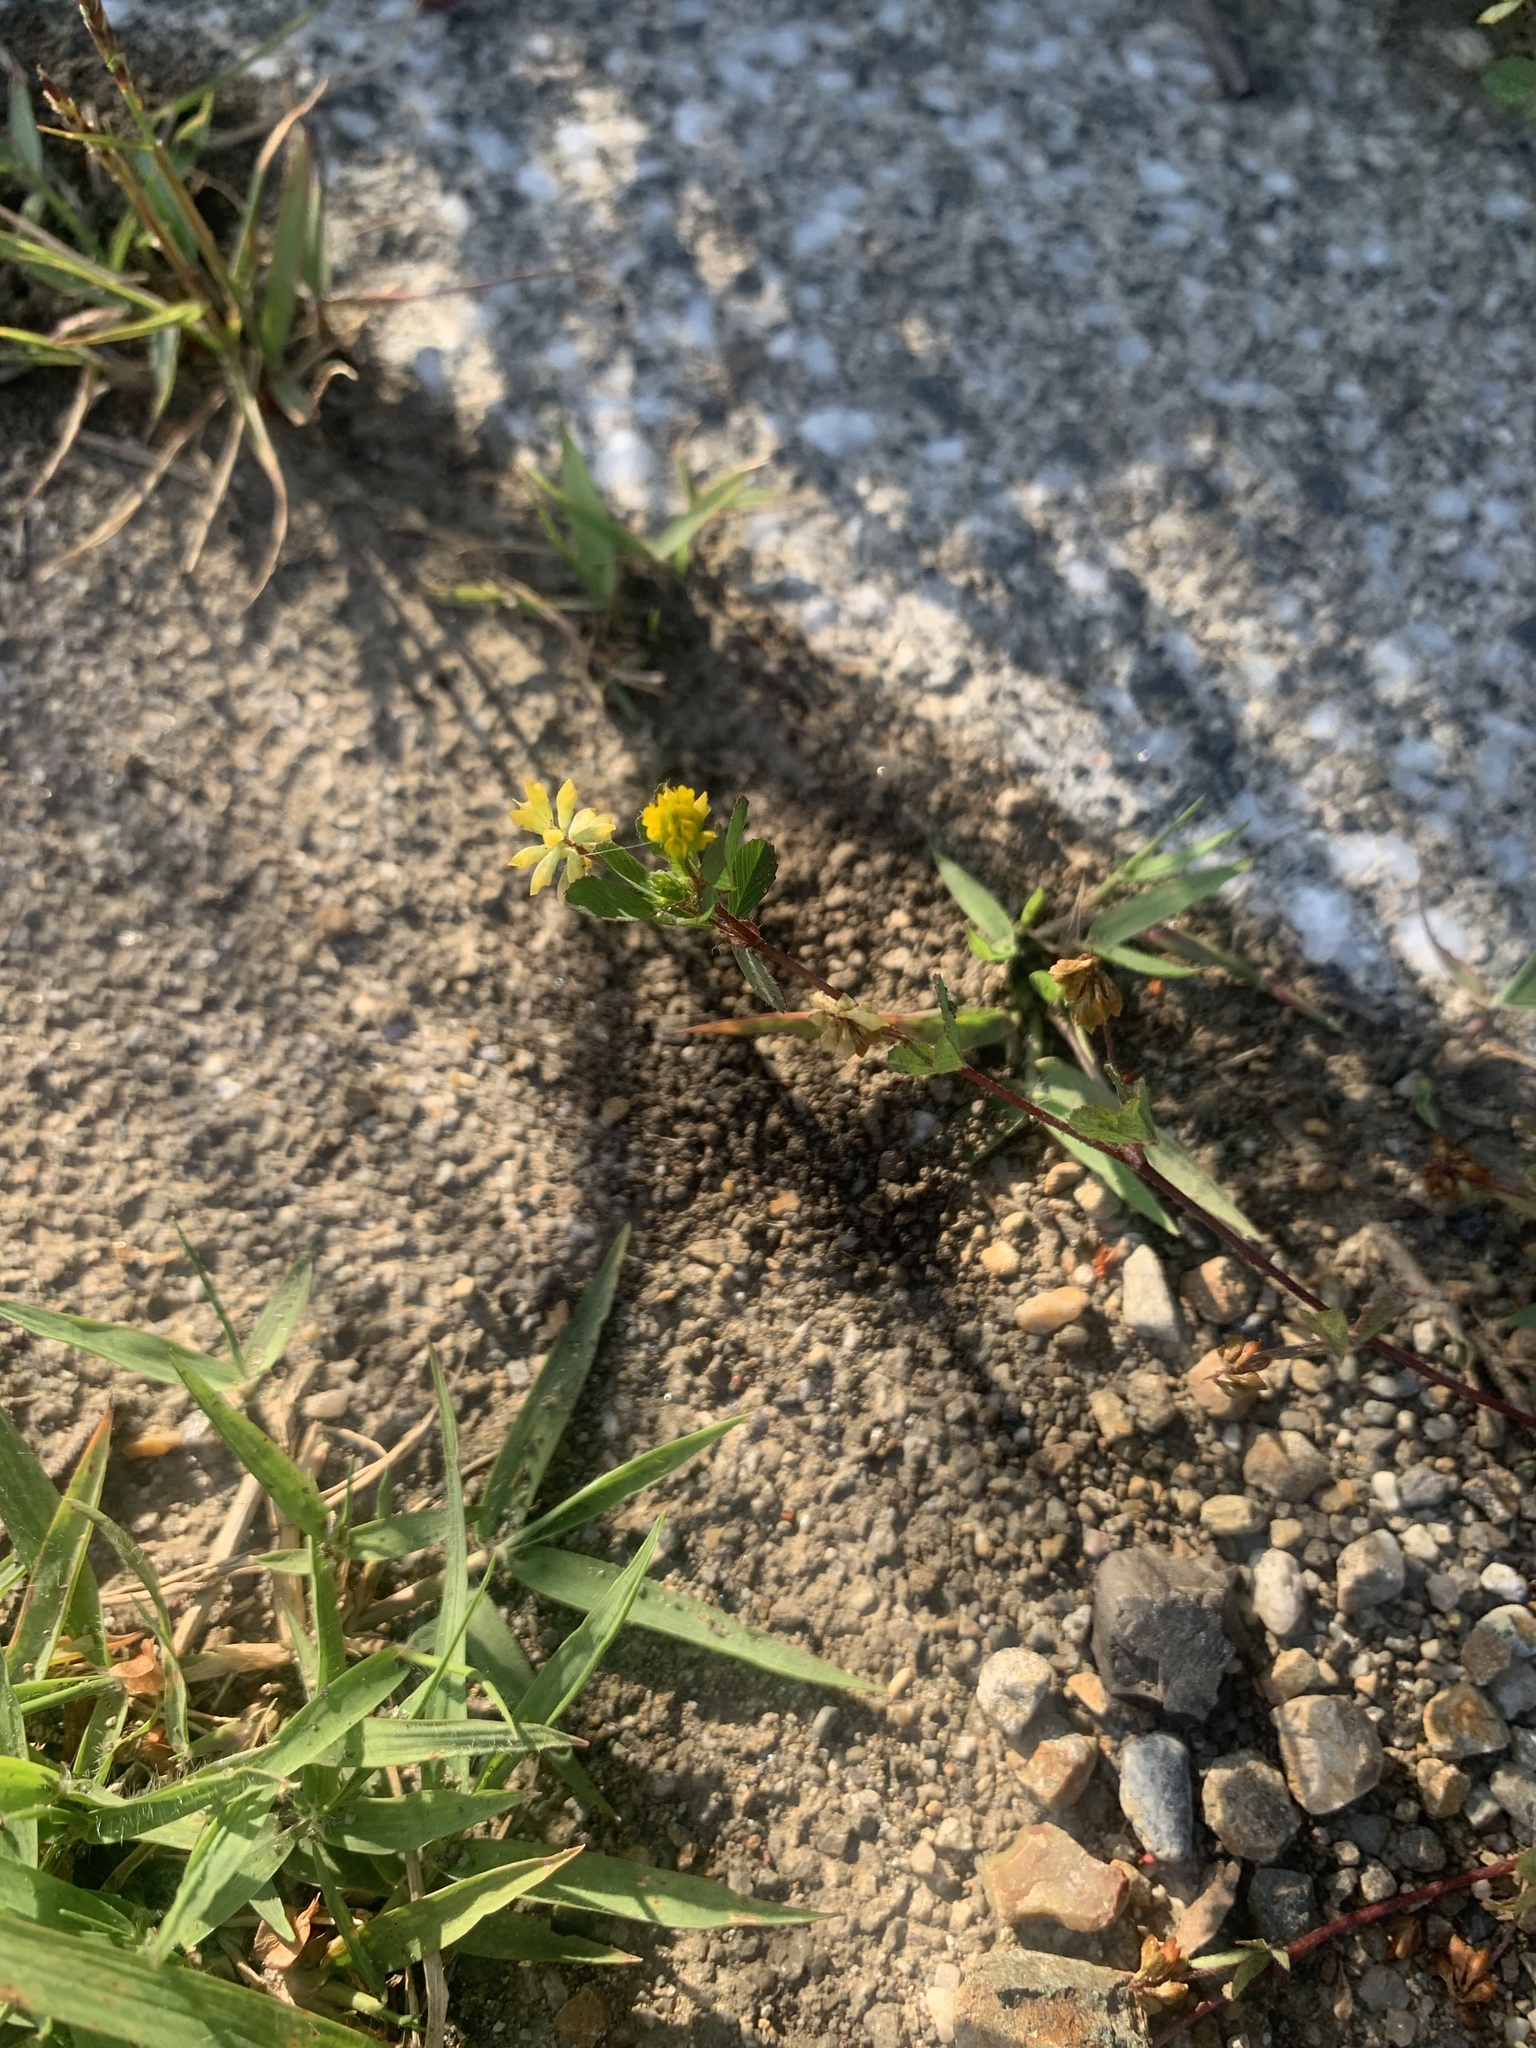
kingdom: Plantae
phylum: Tracheophyta
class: Magnoliopsida
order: Fabales
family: Fabaceae
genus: Trifolium
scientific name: Trifolium dubium
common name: Suckling clover
